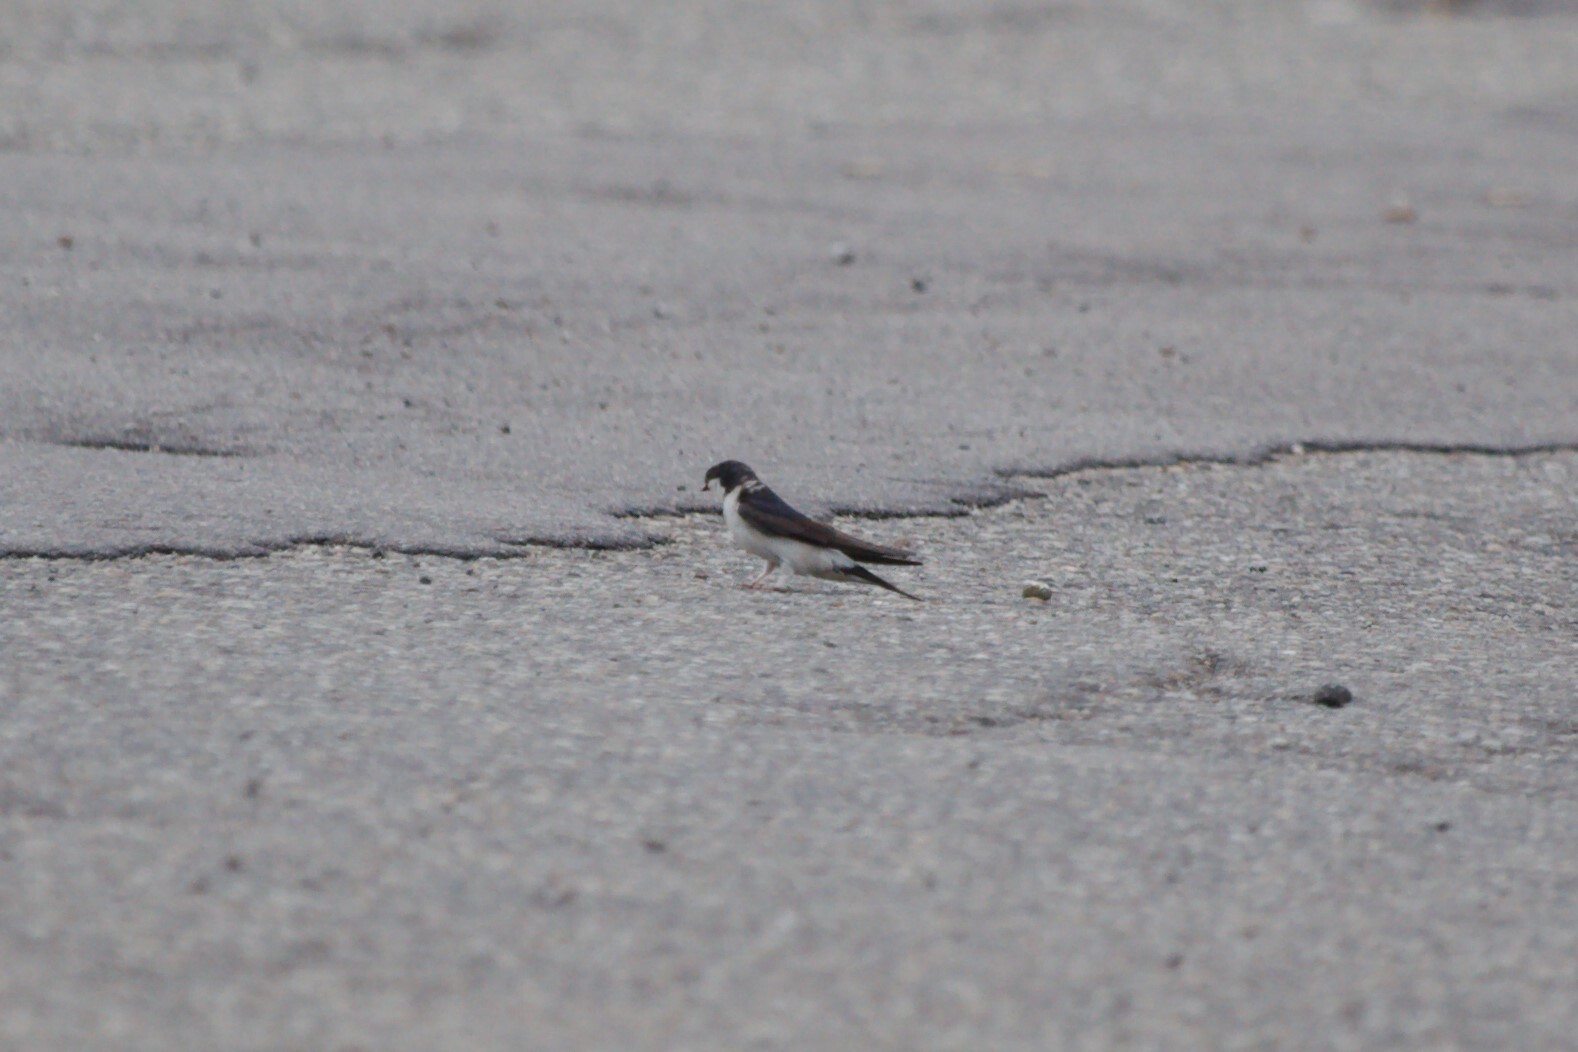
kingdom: Animalia
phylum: Chordata
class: Aves
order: Passeriformes
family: Hirundinidae
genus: Delichon
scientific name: Delichon urbicum
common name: Common house martin
